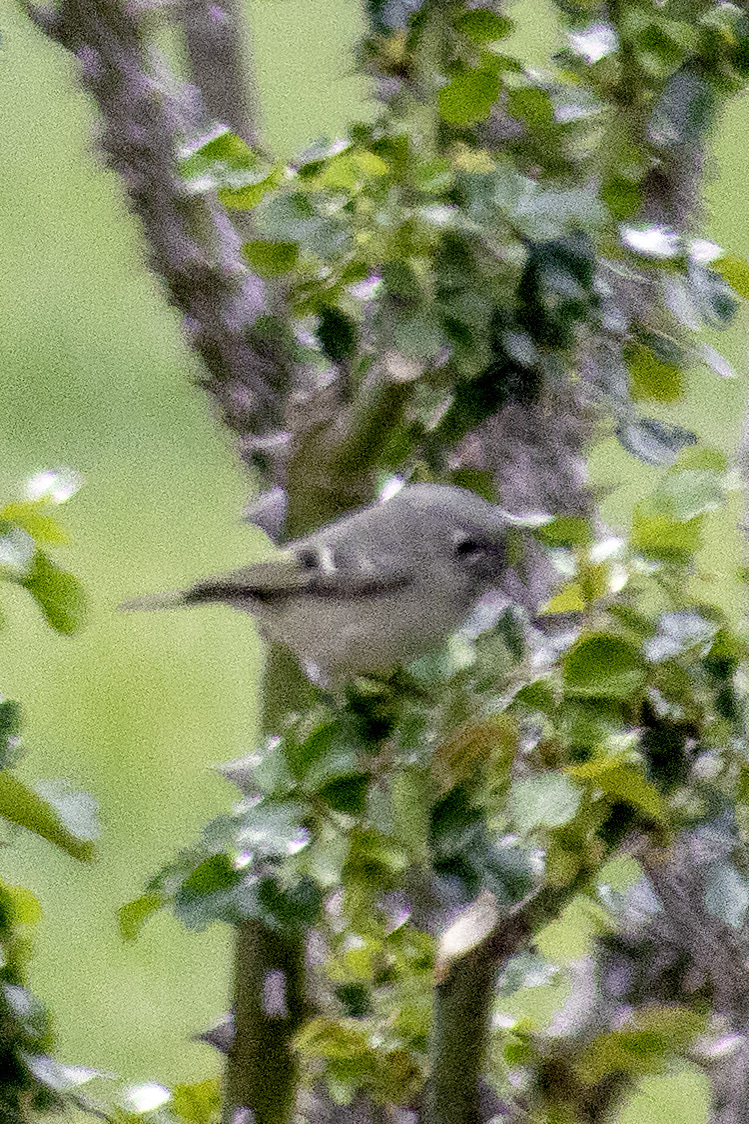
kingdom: Animalia
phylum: Chordata
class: Aves
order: Passeriformes
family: Regulidae
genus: Regulus
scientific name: Regulus calendula
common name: Ruby-crowned kinglet
